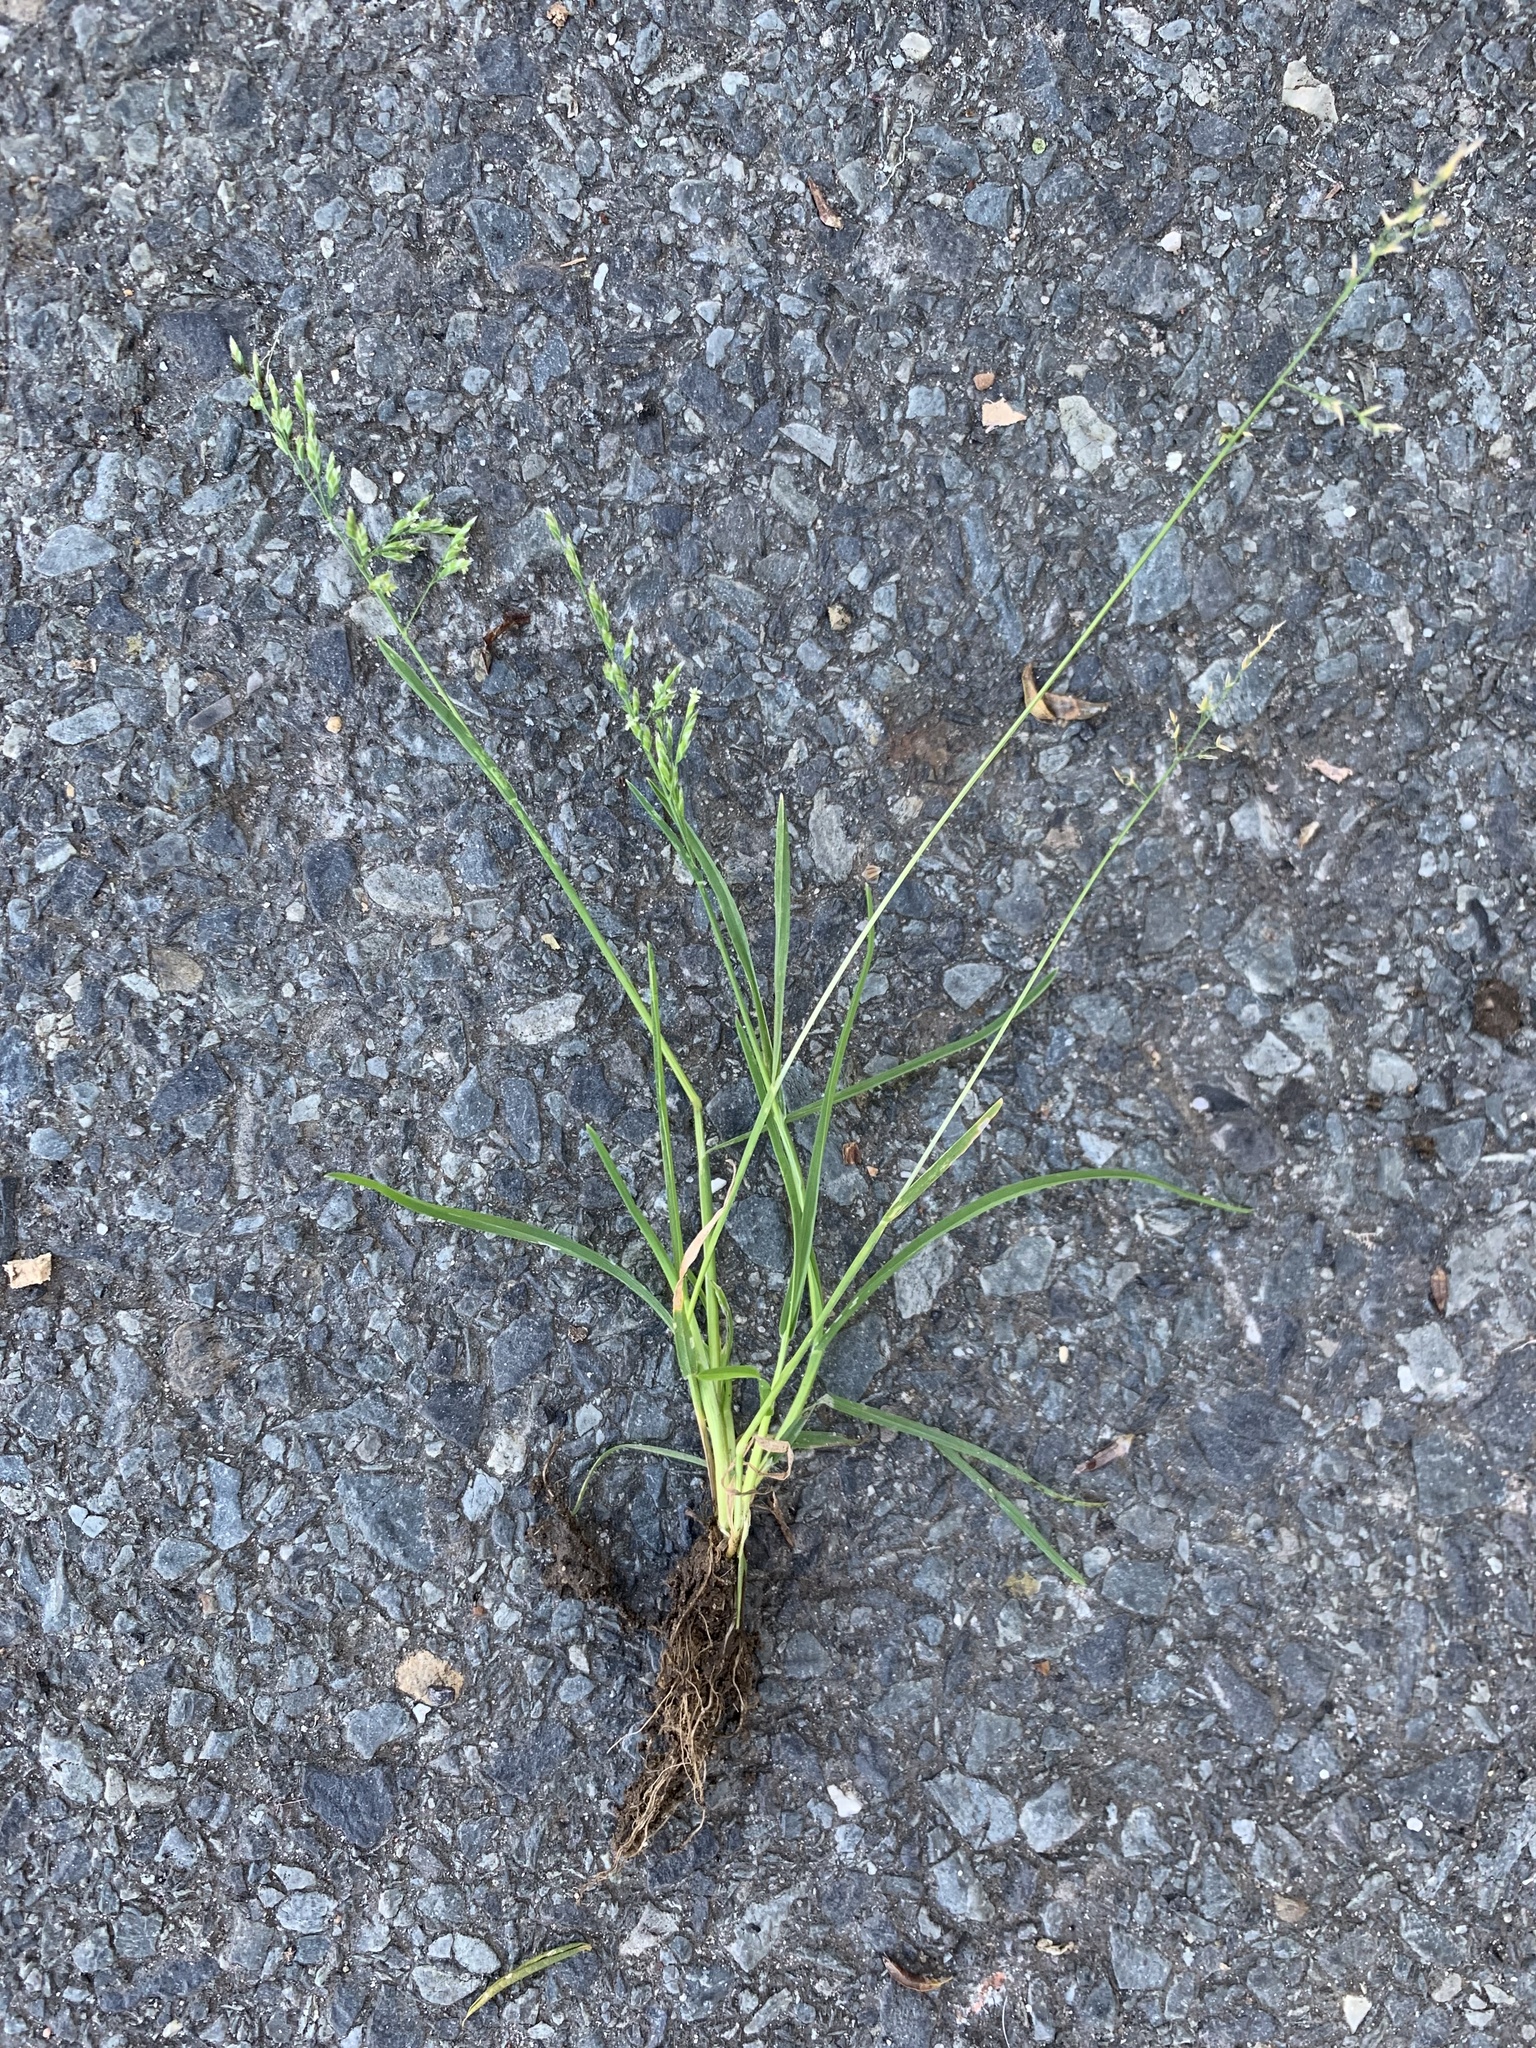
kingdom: Plantae
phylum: Tracheophyta
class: Liliopsida
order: Poales
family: Poaceae
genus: Poa
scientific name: Poa annua
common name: Annual bluegrass
